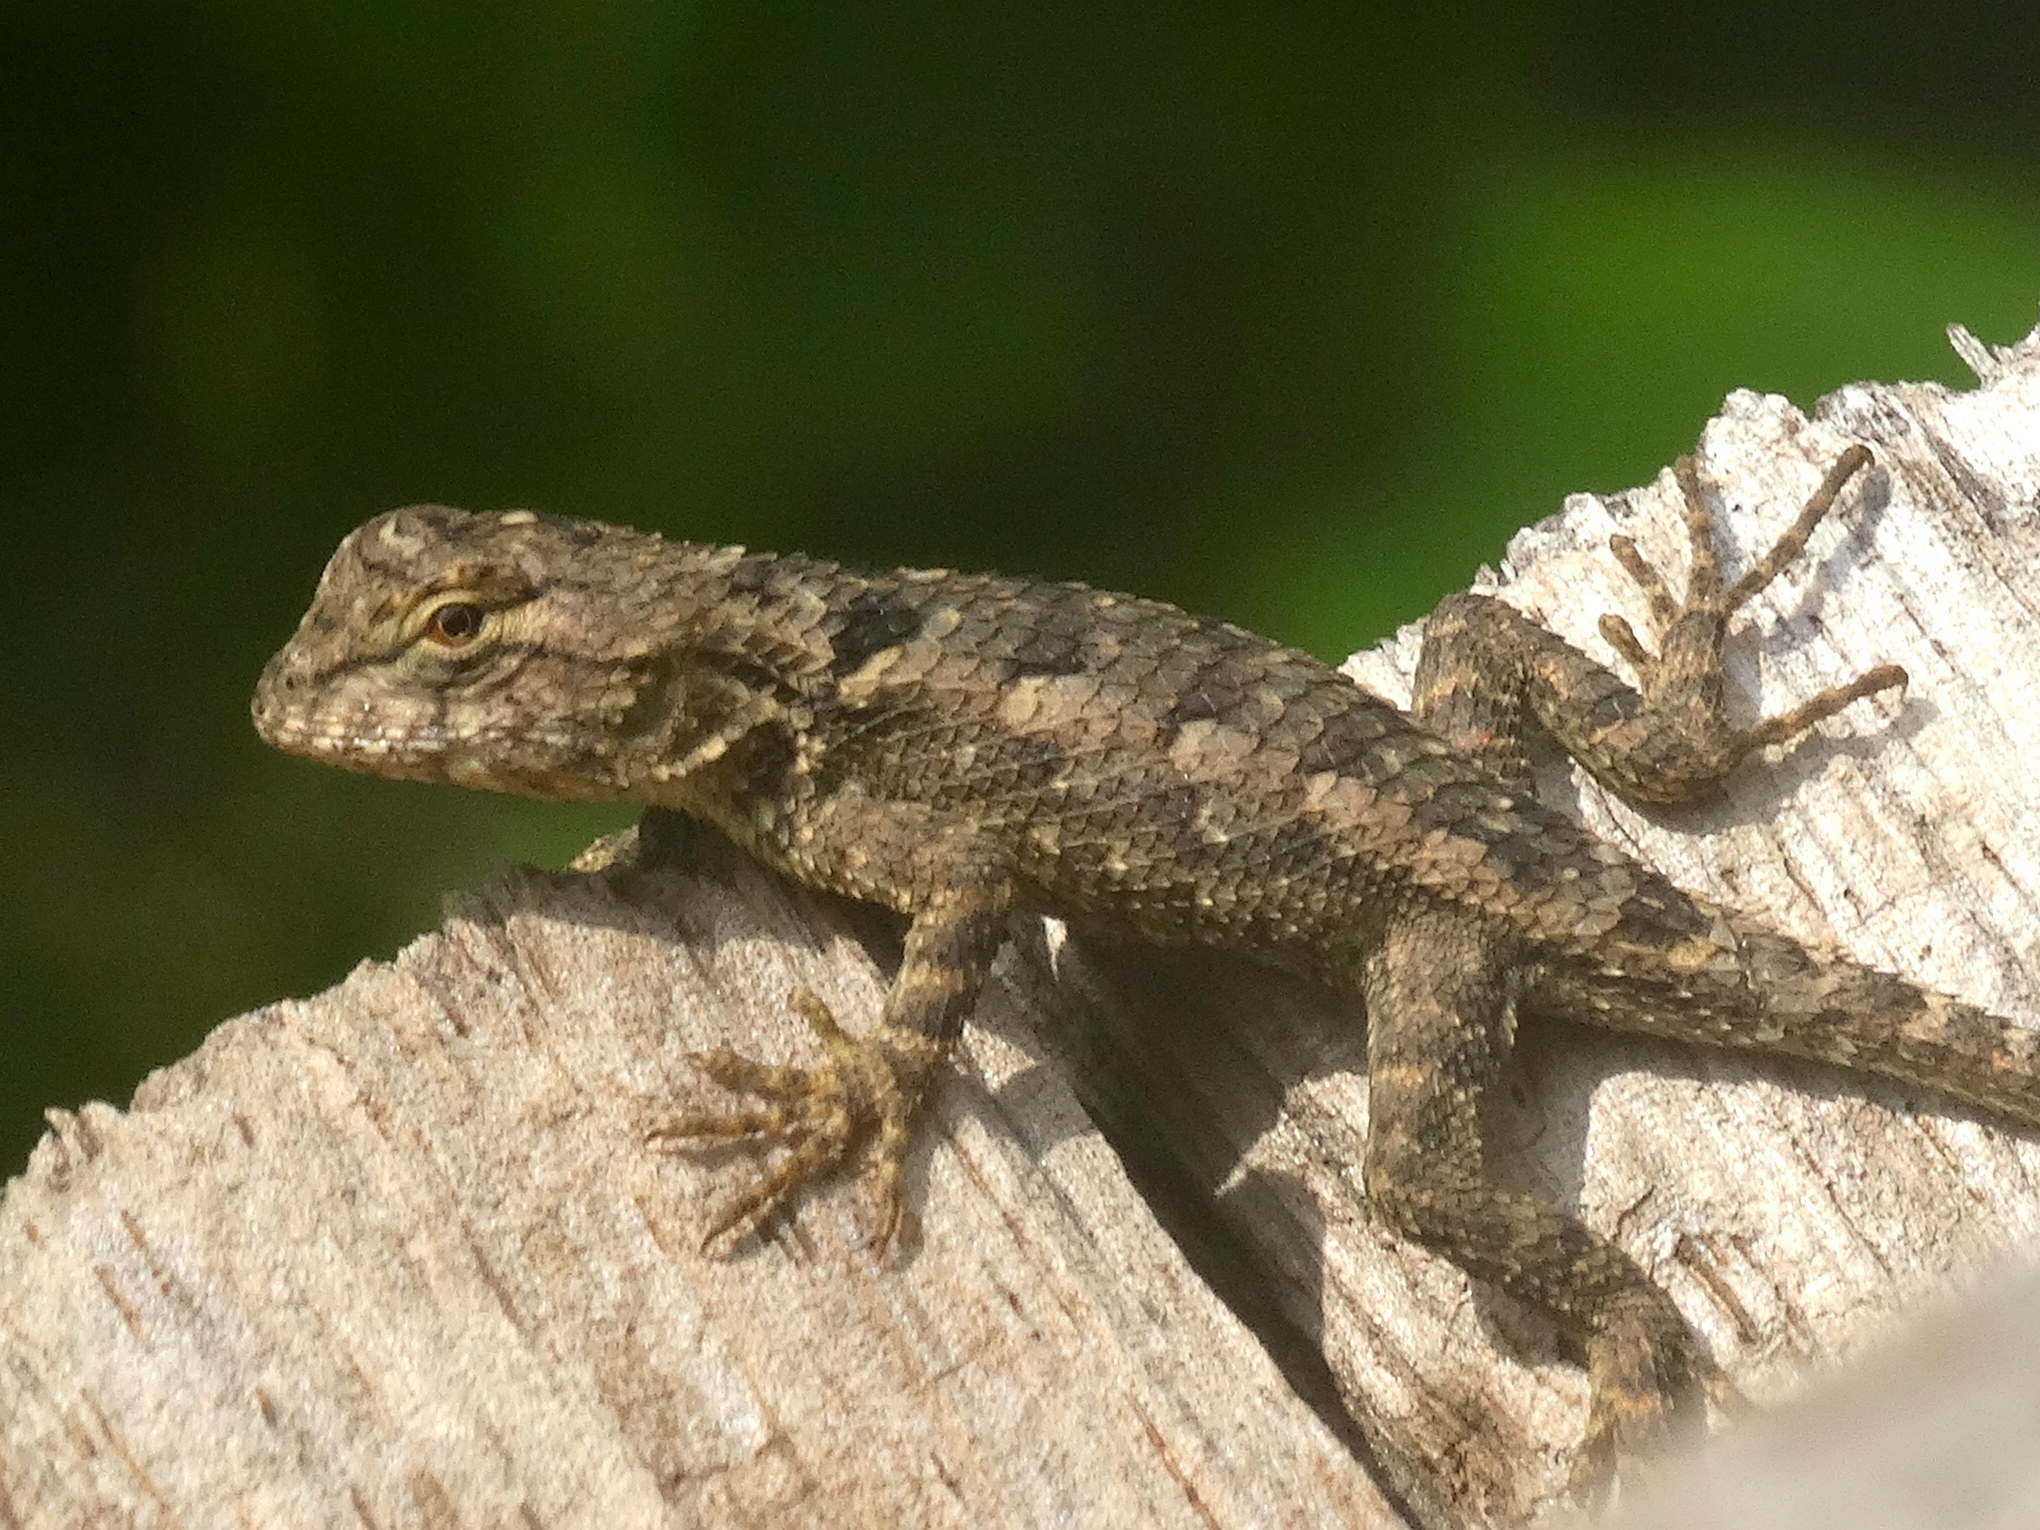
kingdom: Animalia
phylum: Chordata
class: Squamata
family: Phrynosomatidae
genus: Sceloporus
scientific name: Sceloporus clarkii
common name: Clark's spiny lizard
